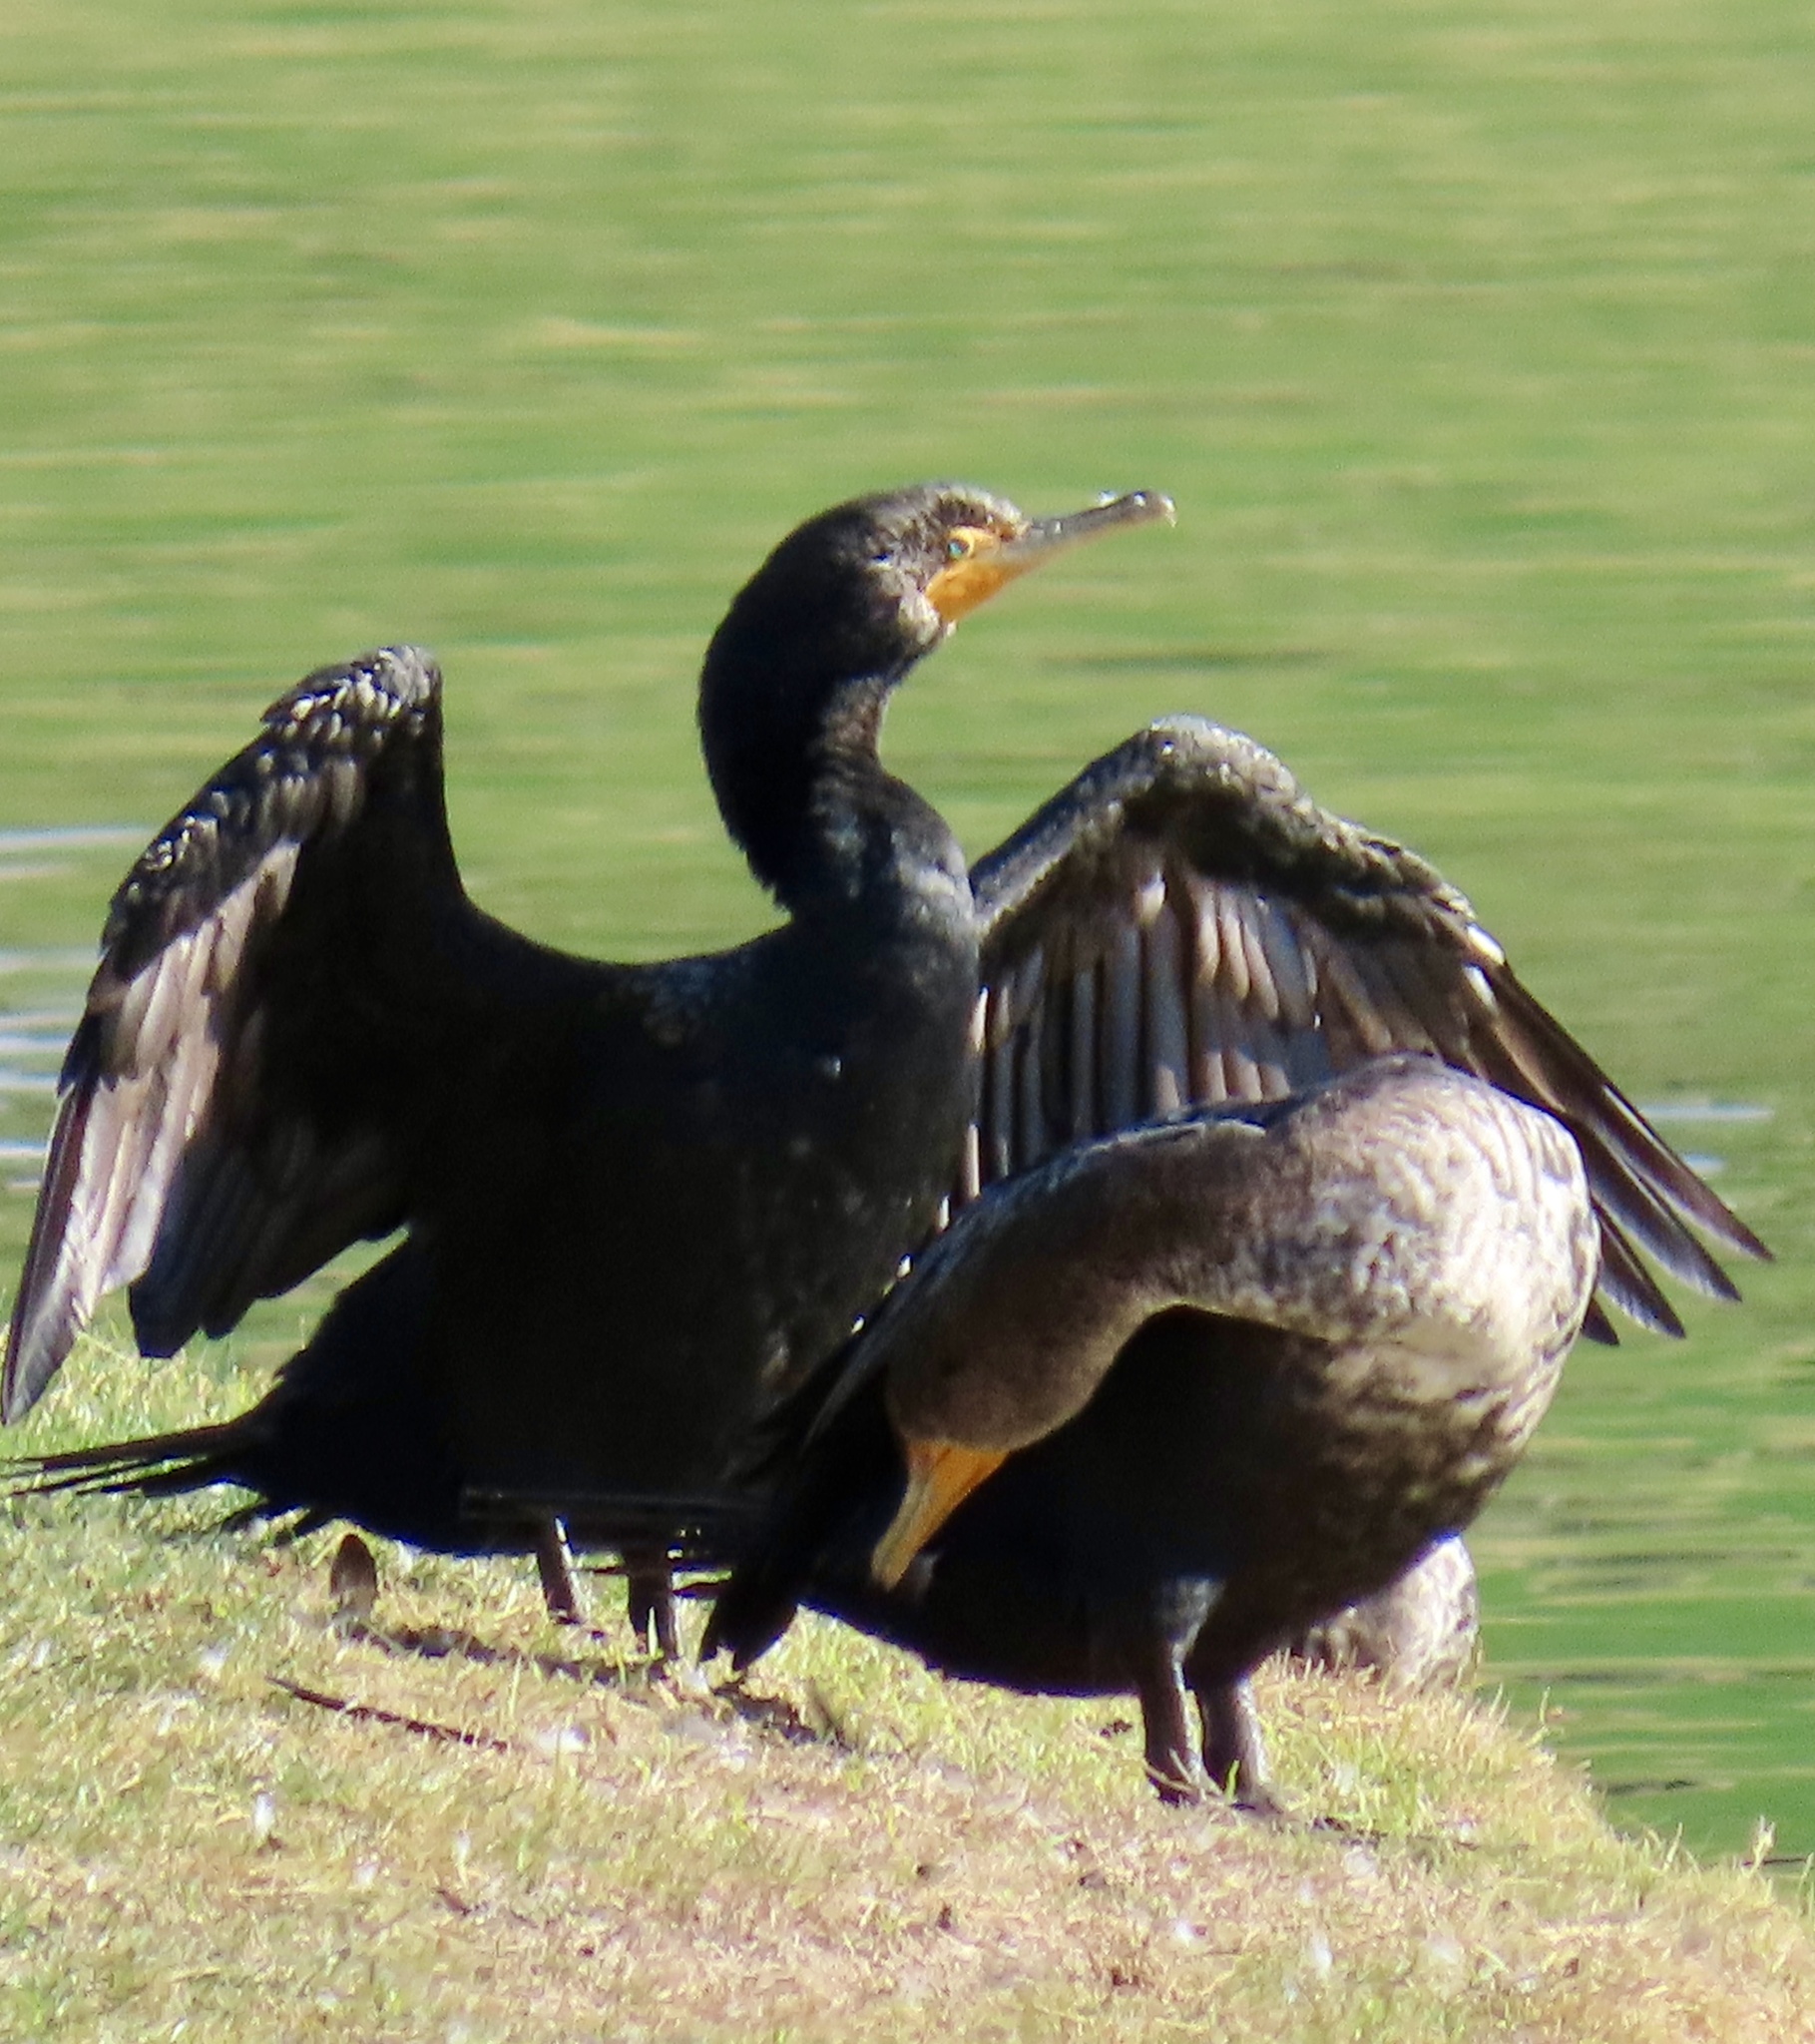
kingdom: Animalia
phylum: Chordata
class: Aves
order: Suliformes
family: Phalacrocoracidae
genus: Phalacrocorax
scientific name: Phalacrocorax auritus
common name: Double-crested cormorant
